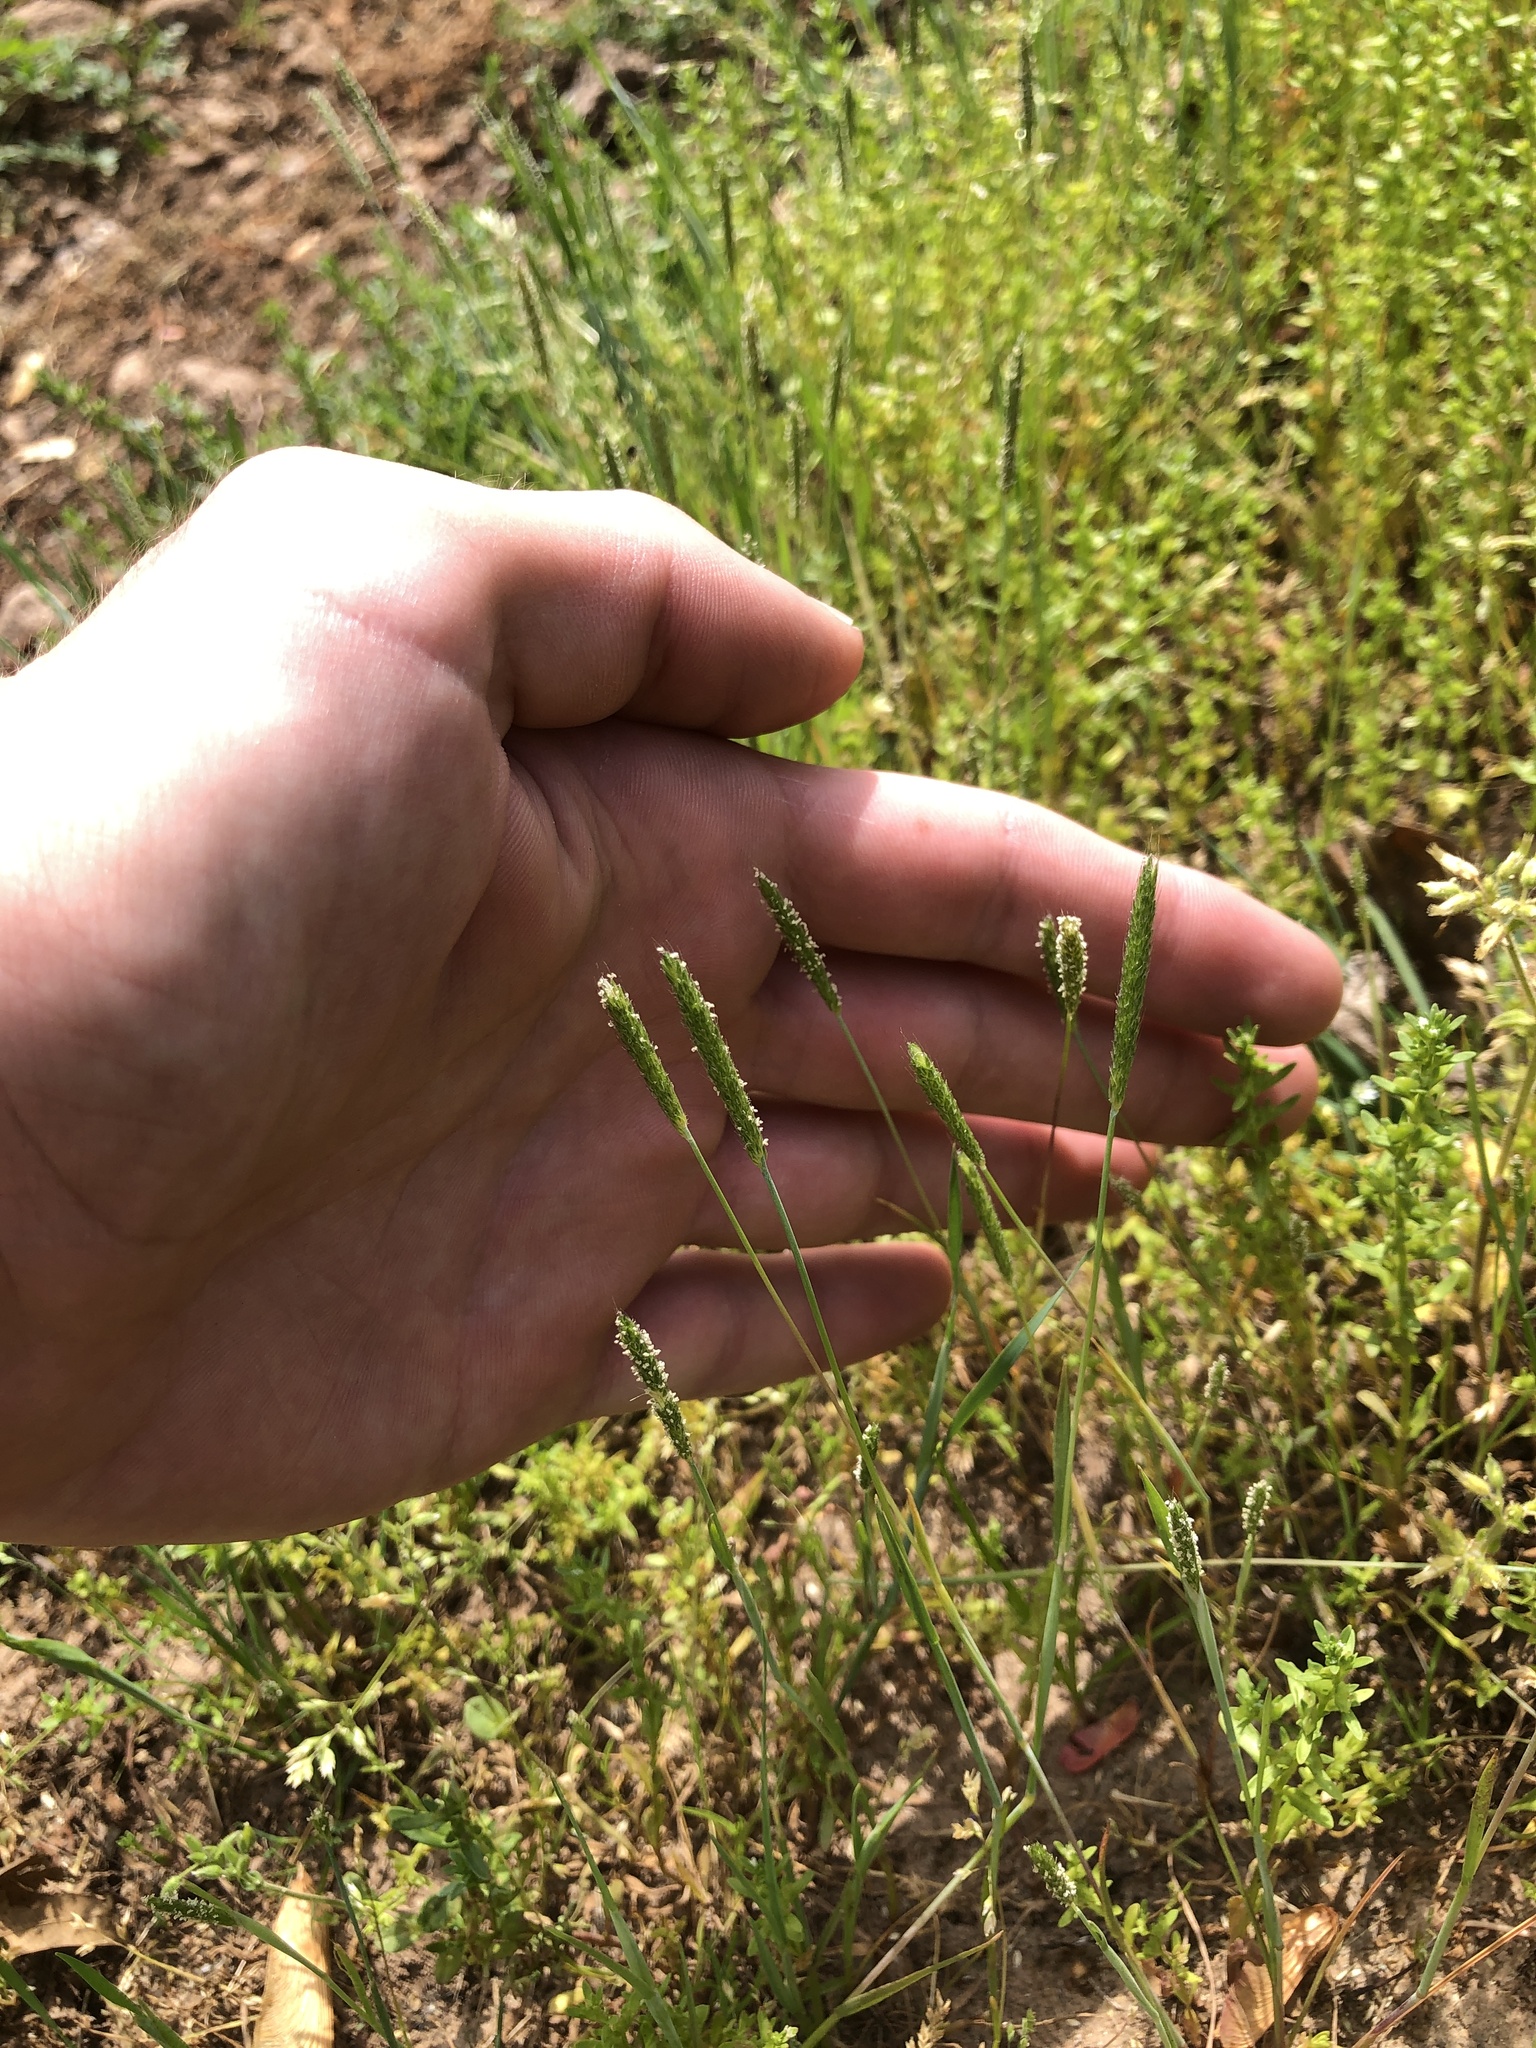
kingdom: Plantae
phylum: Tracheophyta
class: Liliopsida
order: Poales
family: Poaceae
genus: Alopecurus
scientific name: Alopecurus carolinianus
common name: Tufted foxtail
